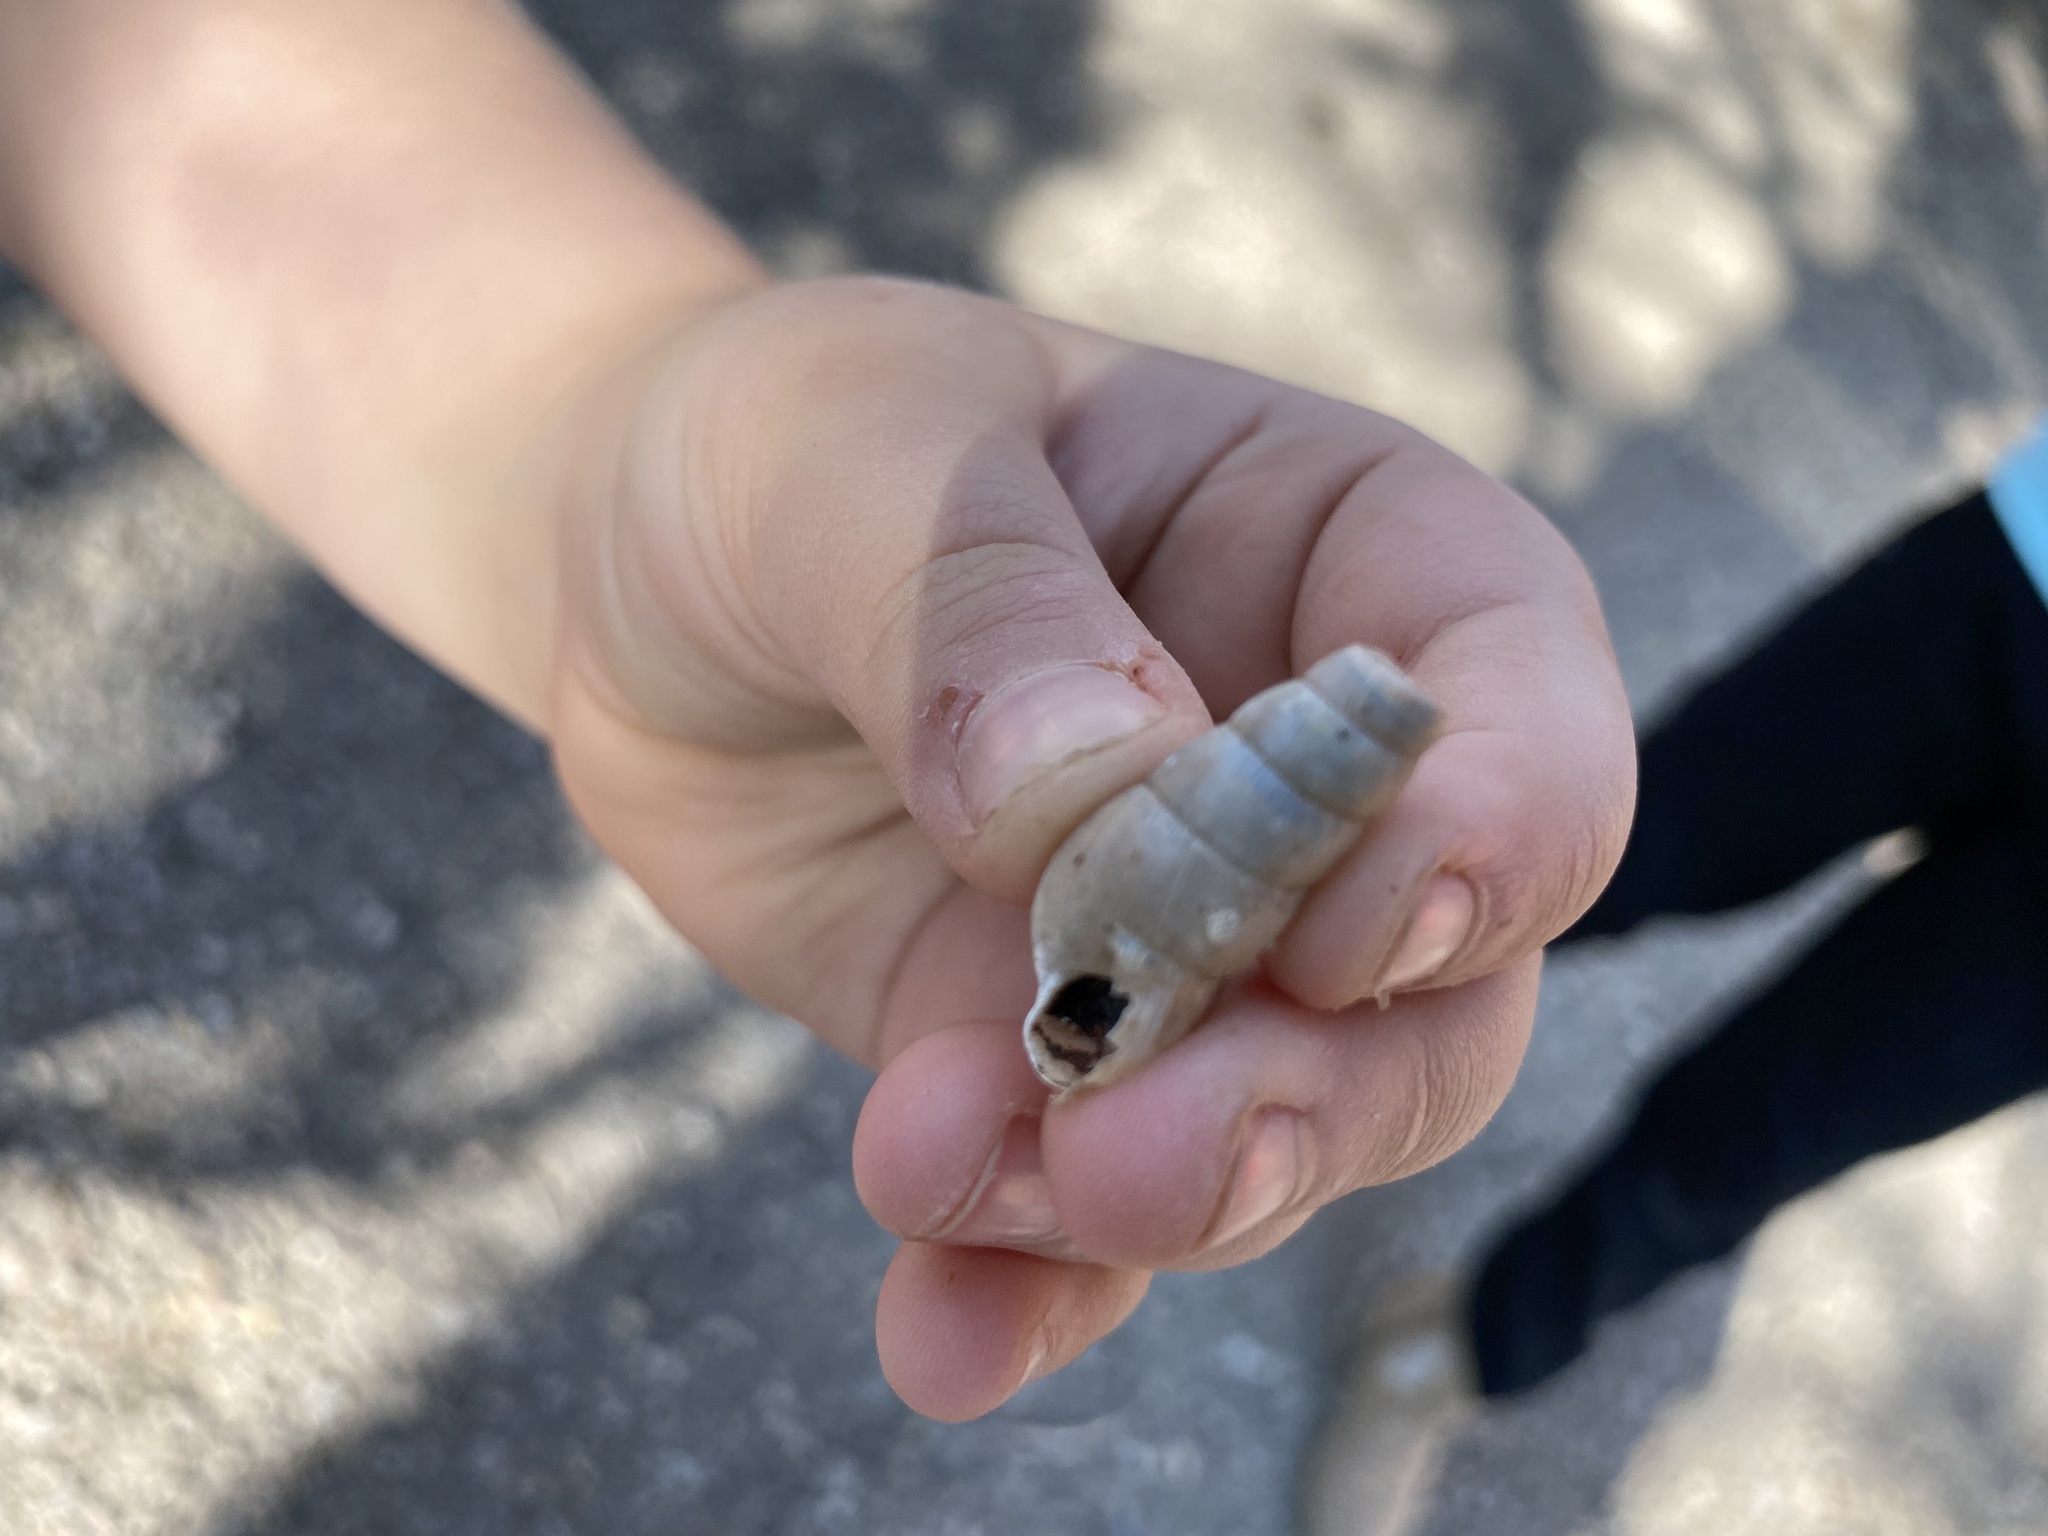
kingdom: Animalia
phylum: Mollusca
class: Gastropoda
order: Stylommatophora
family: Achatinidae
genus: Rumina
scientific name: Rumina decollata
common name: Decollate snail
